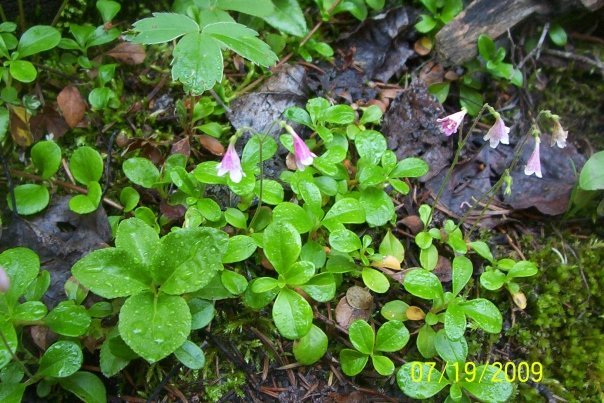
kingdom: Plantae
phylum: Tracheophyta
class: Magnoliopsida
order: Dipsacales
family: Caprifoliaceae
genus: Linnaea
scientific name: Linnaea borealis
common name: Twinflower
